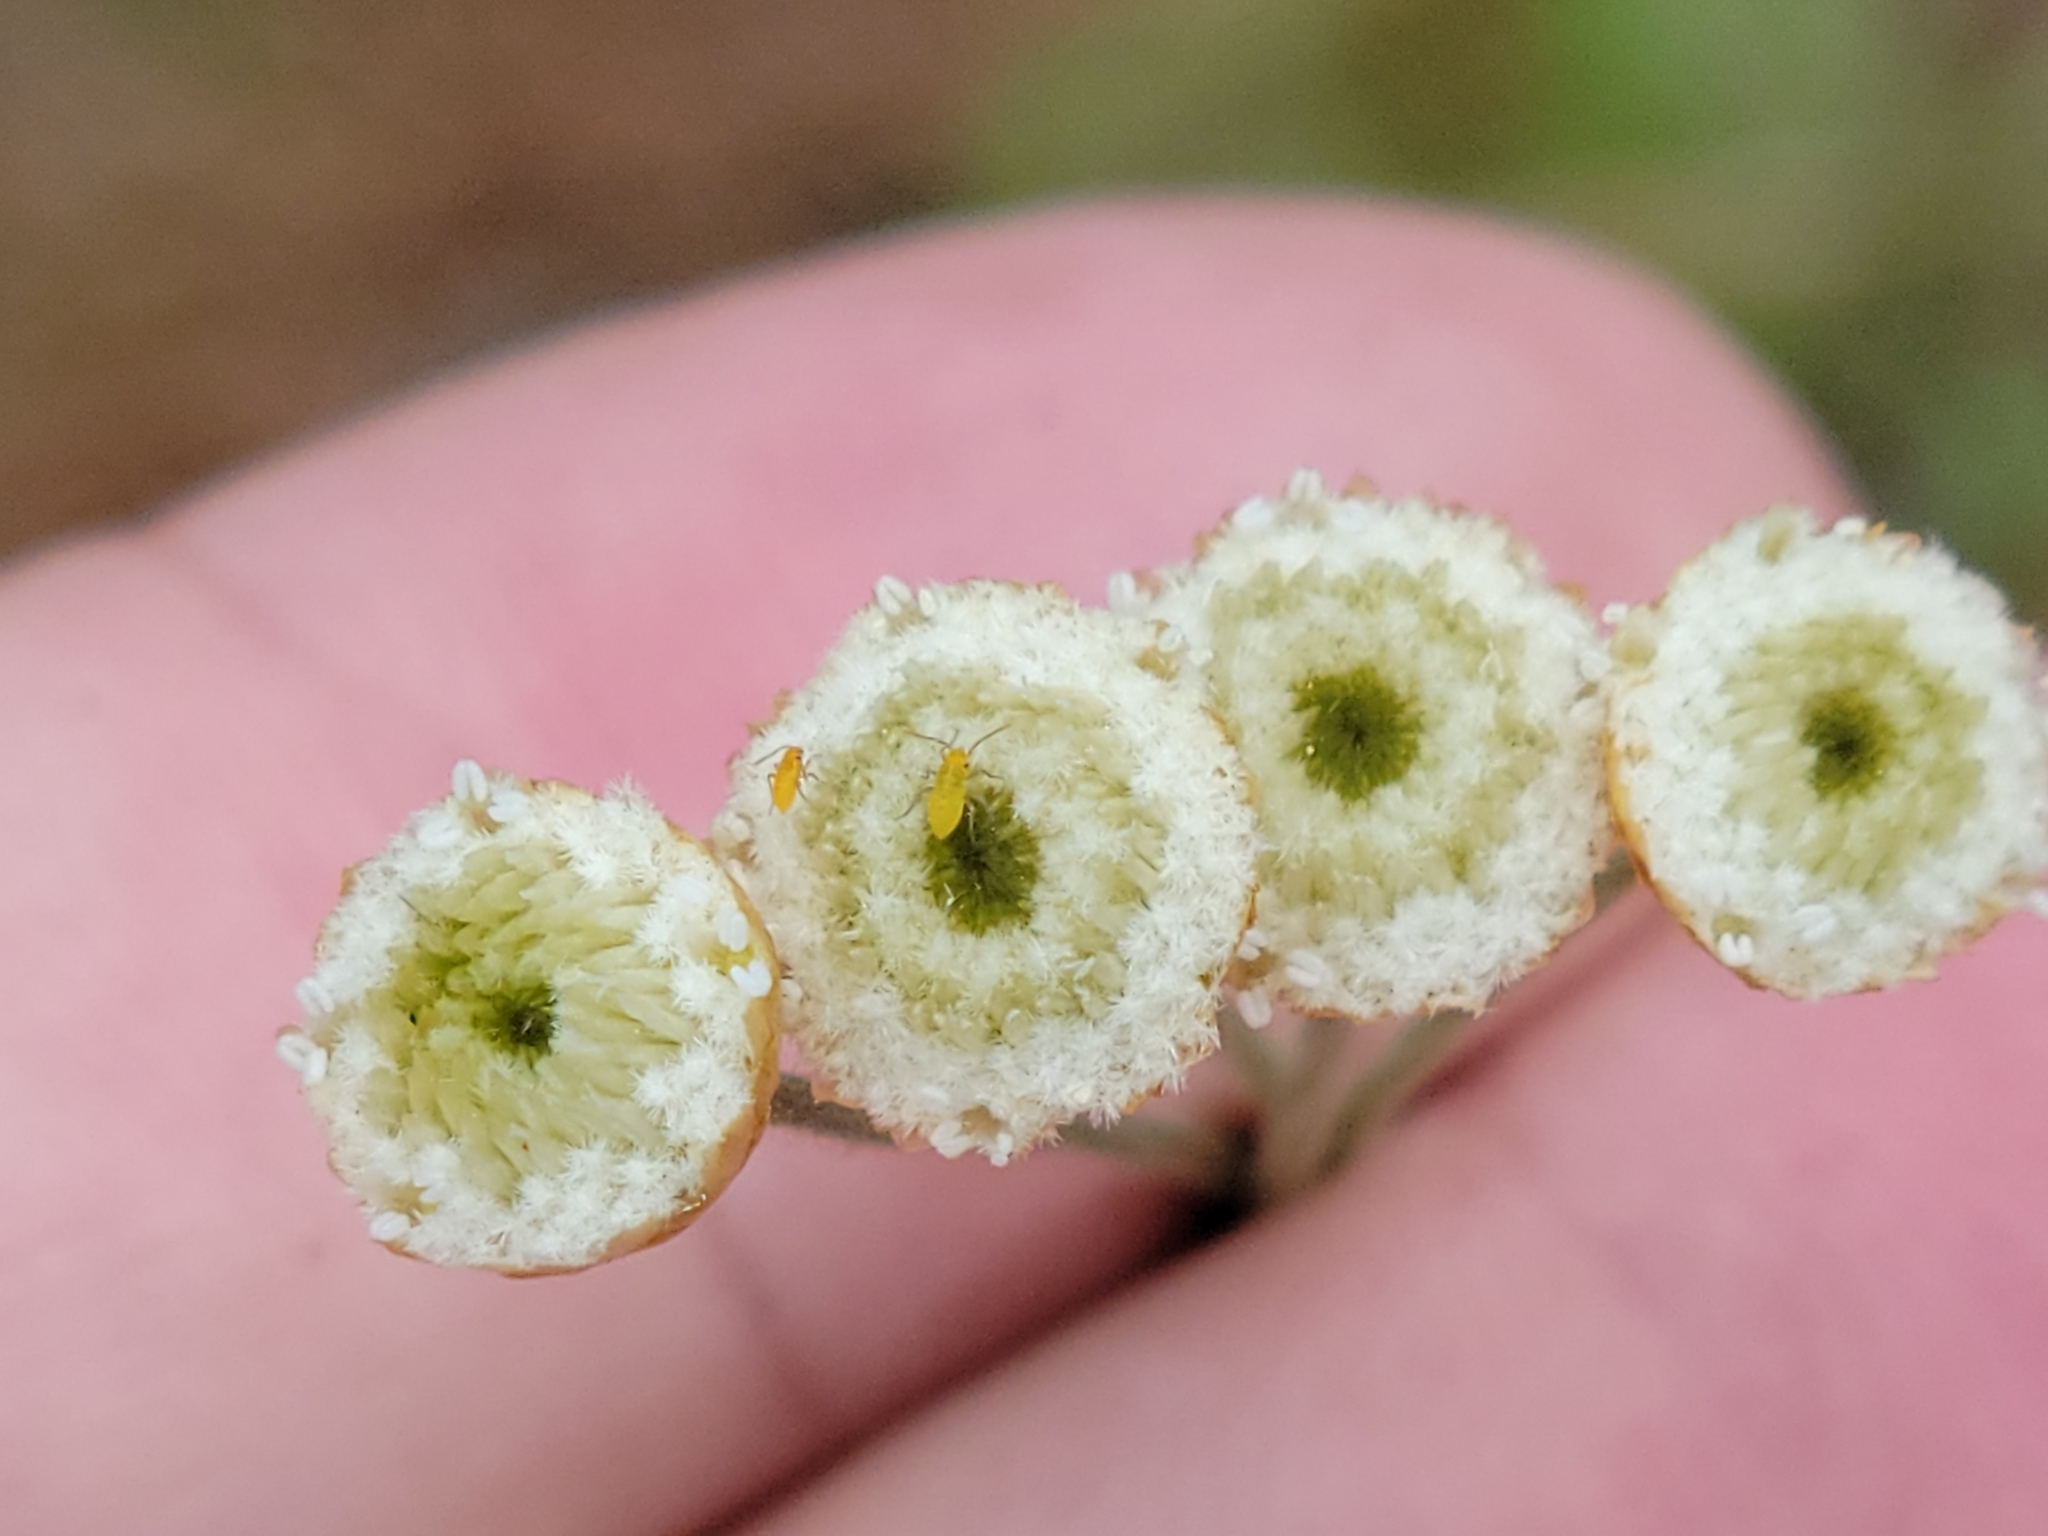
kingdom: Plantae
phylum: Tracheophyta
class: Liliopsida
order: Poales
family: Eriocaulaceae
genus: Syngonanthus
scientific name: Syngonanthus flavidulus
